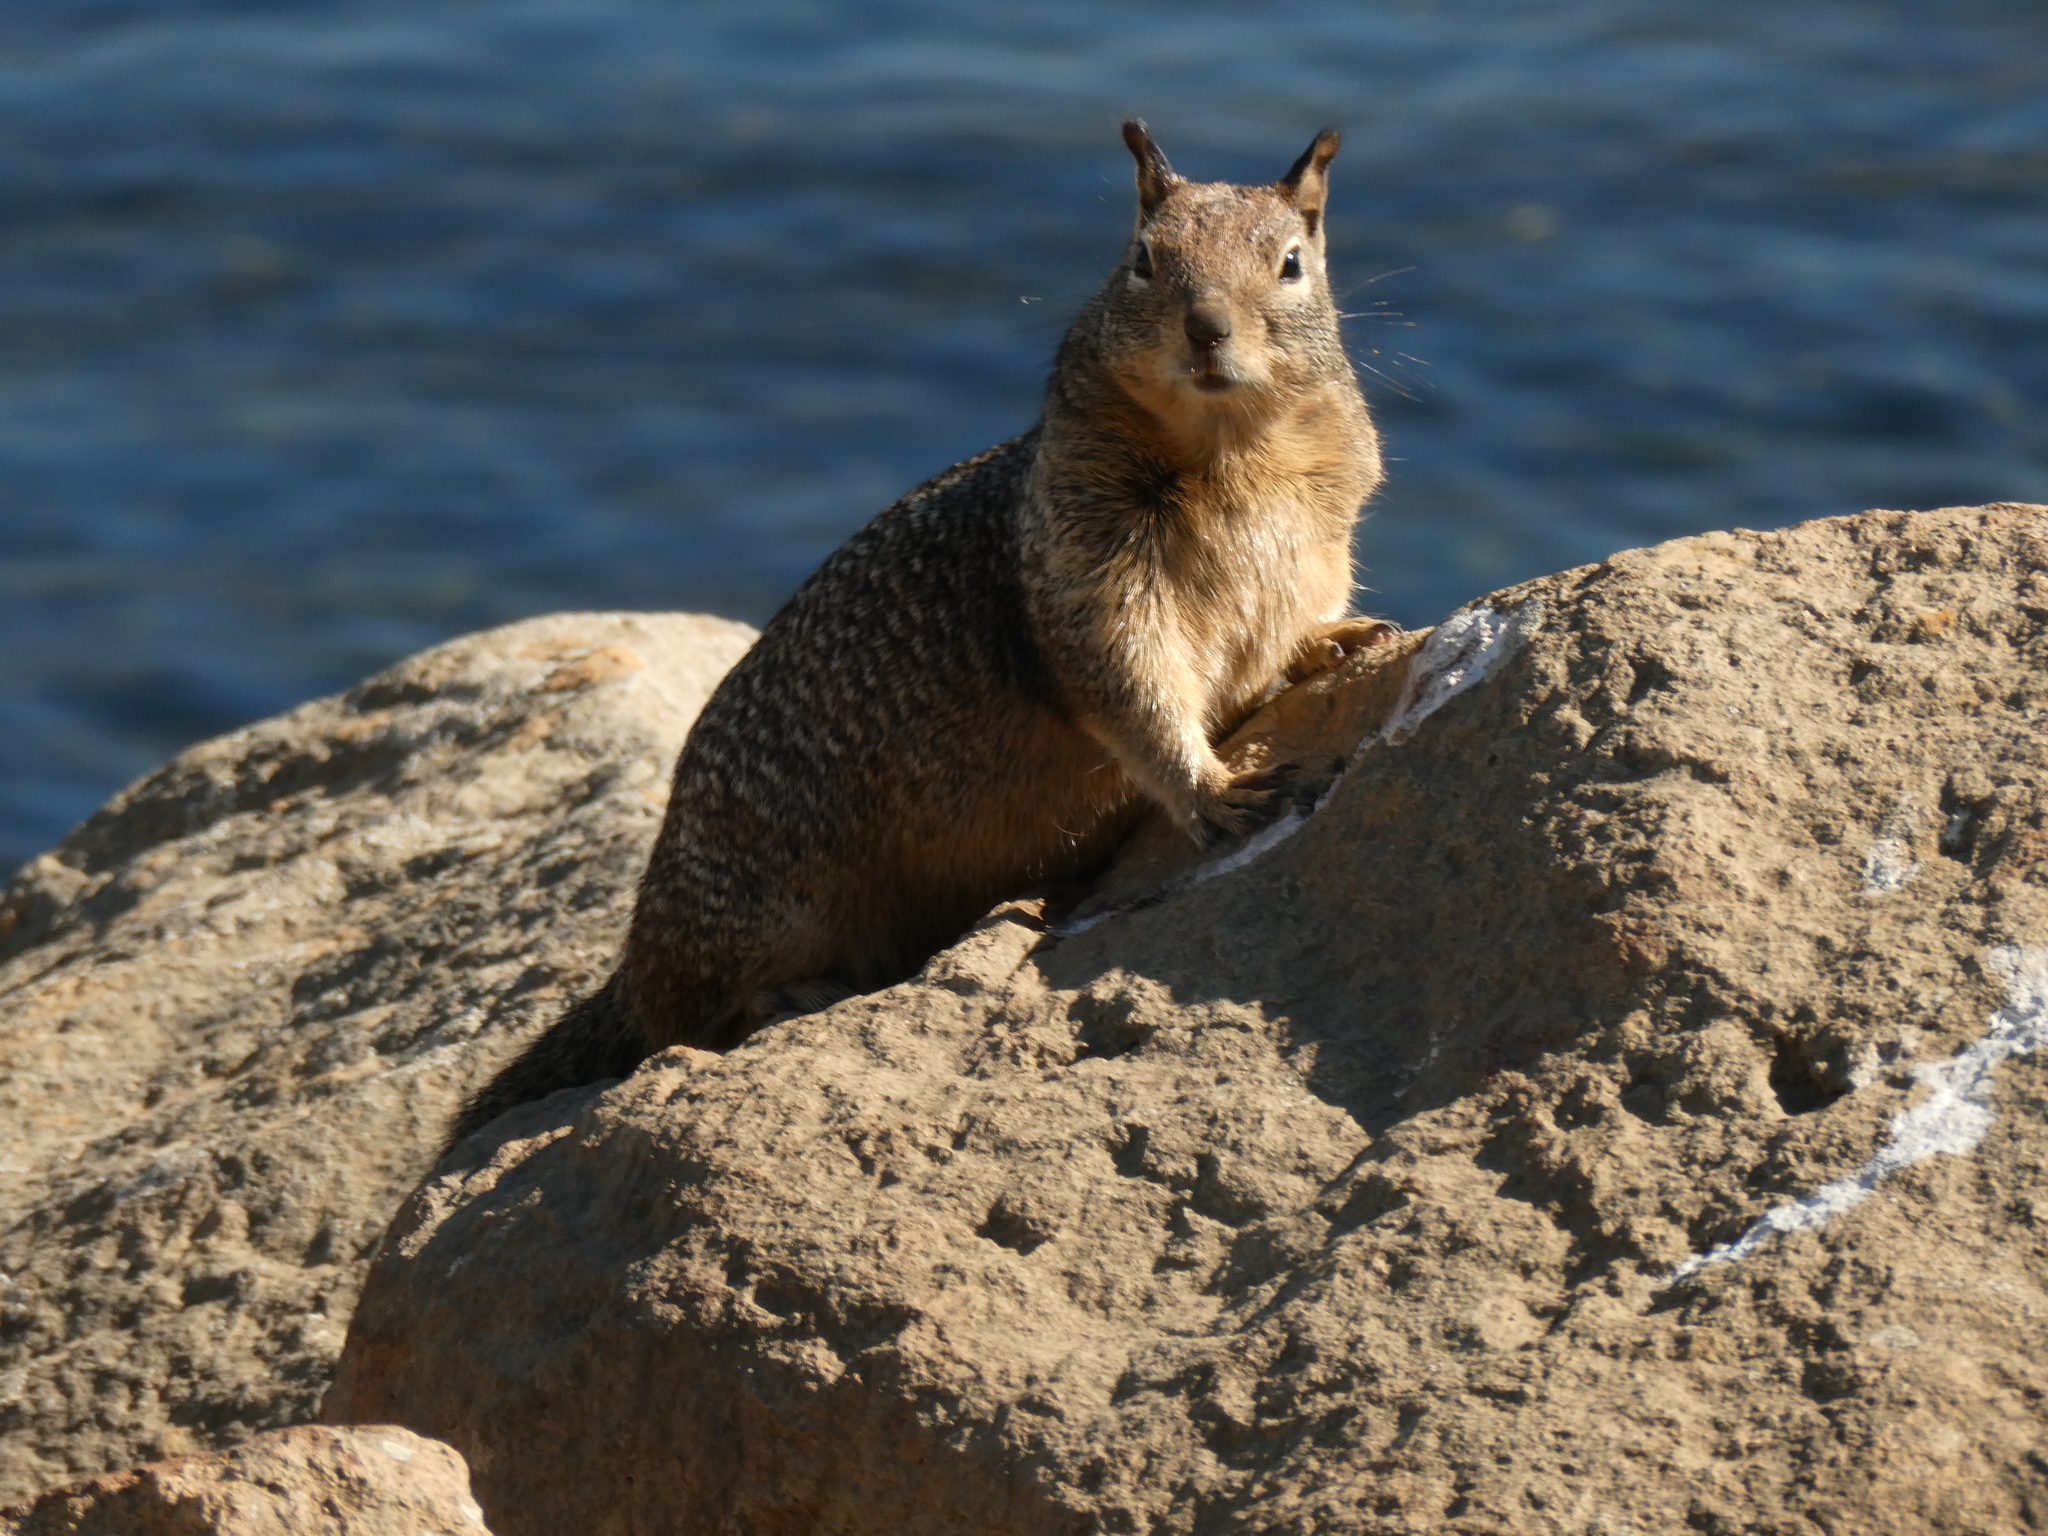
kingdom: Animalia
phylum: Chordata
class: Mammalia
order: Rodentia
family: Sciuridae
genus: Otospermophilus
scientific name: Otospermophilus beecheyi
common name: California ground squirrel
